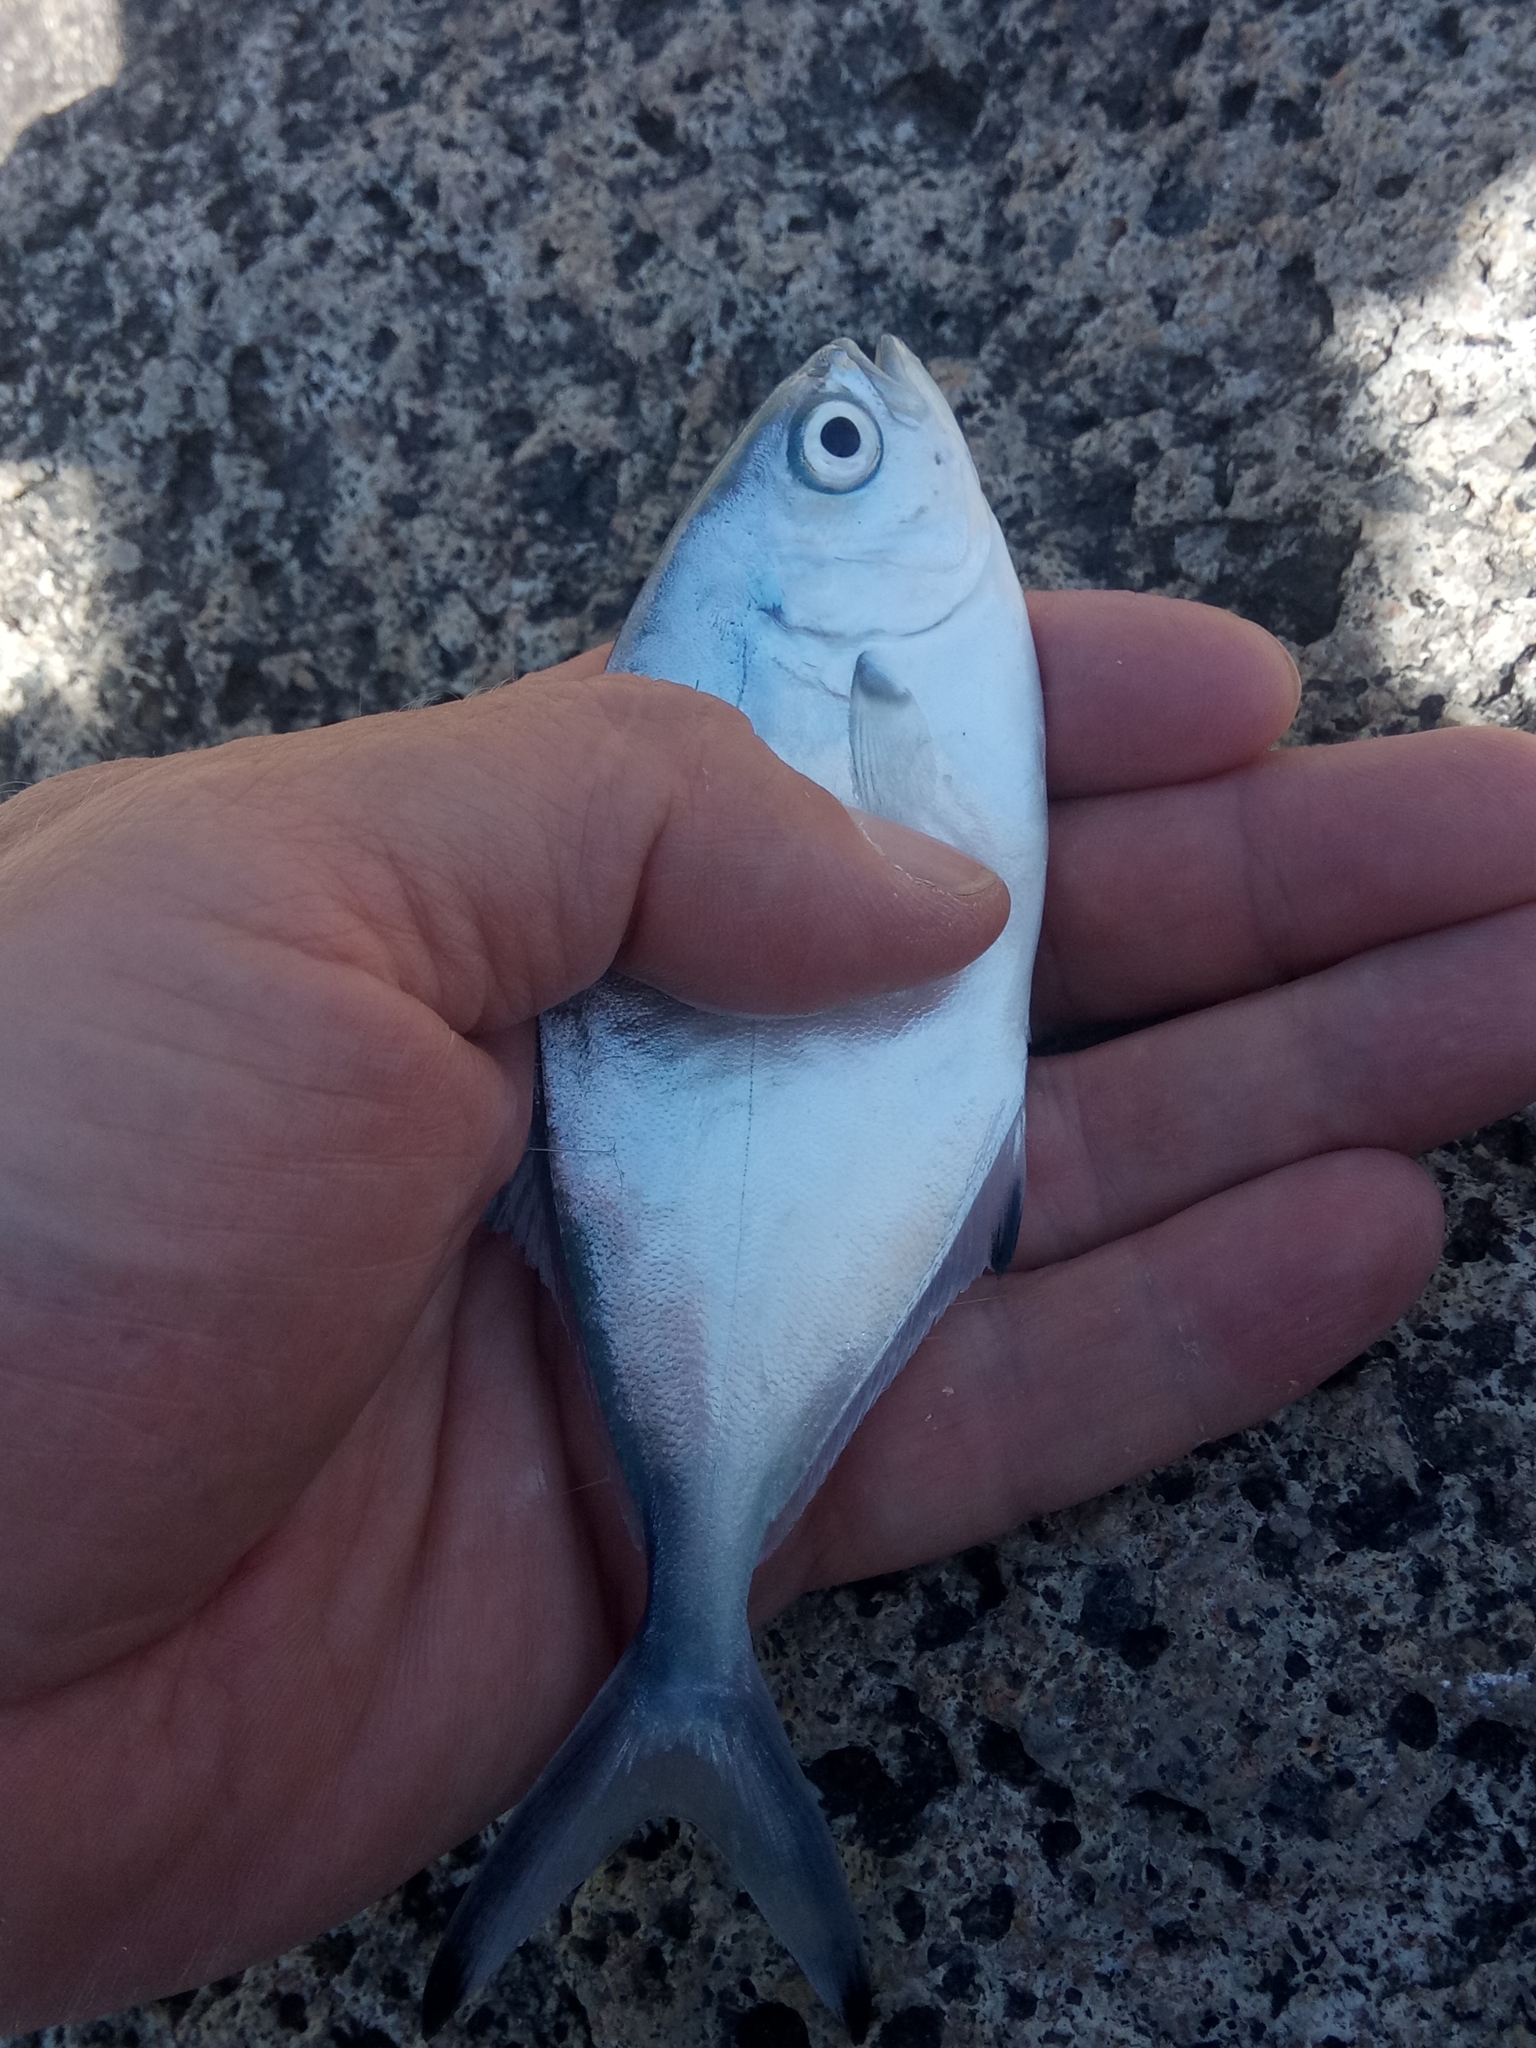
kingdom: Animalia
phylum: Chordata
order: Perciformes
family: Carangidae
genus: Trachinotus
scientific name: Trachinotus ovatus
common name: Pompano
